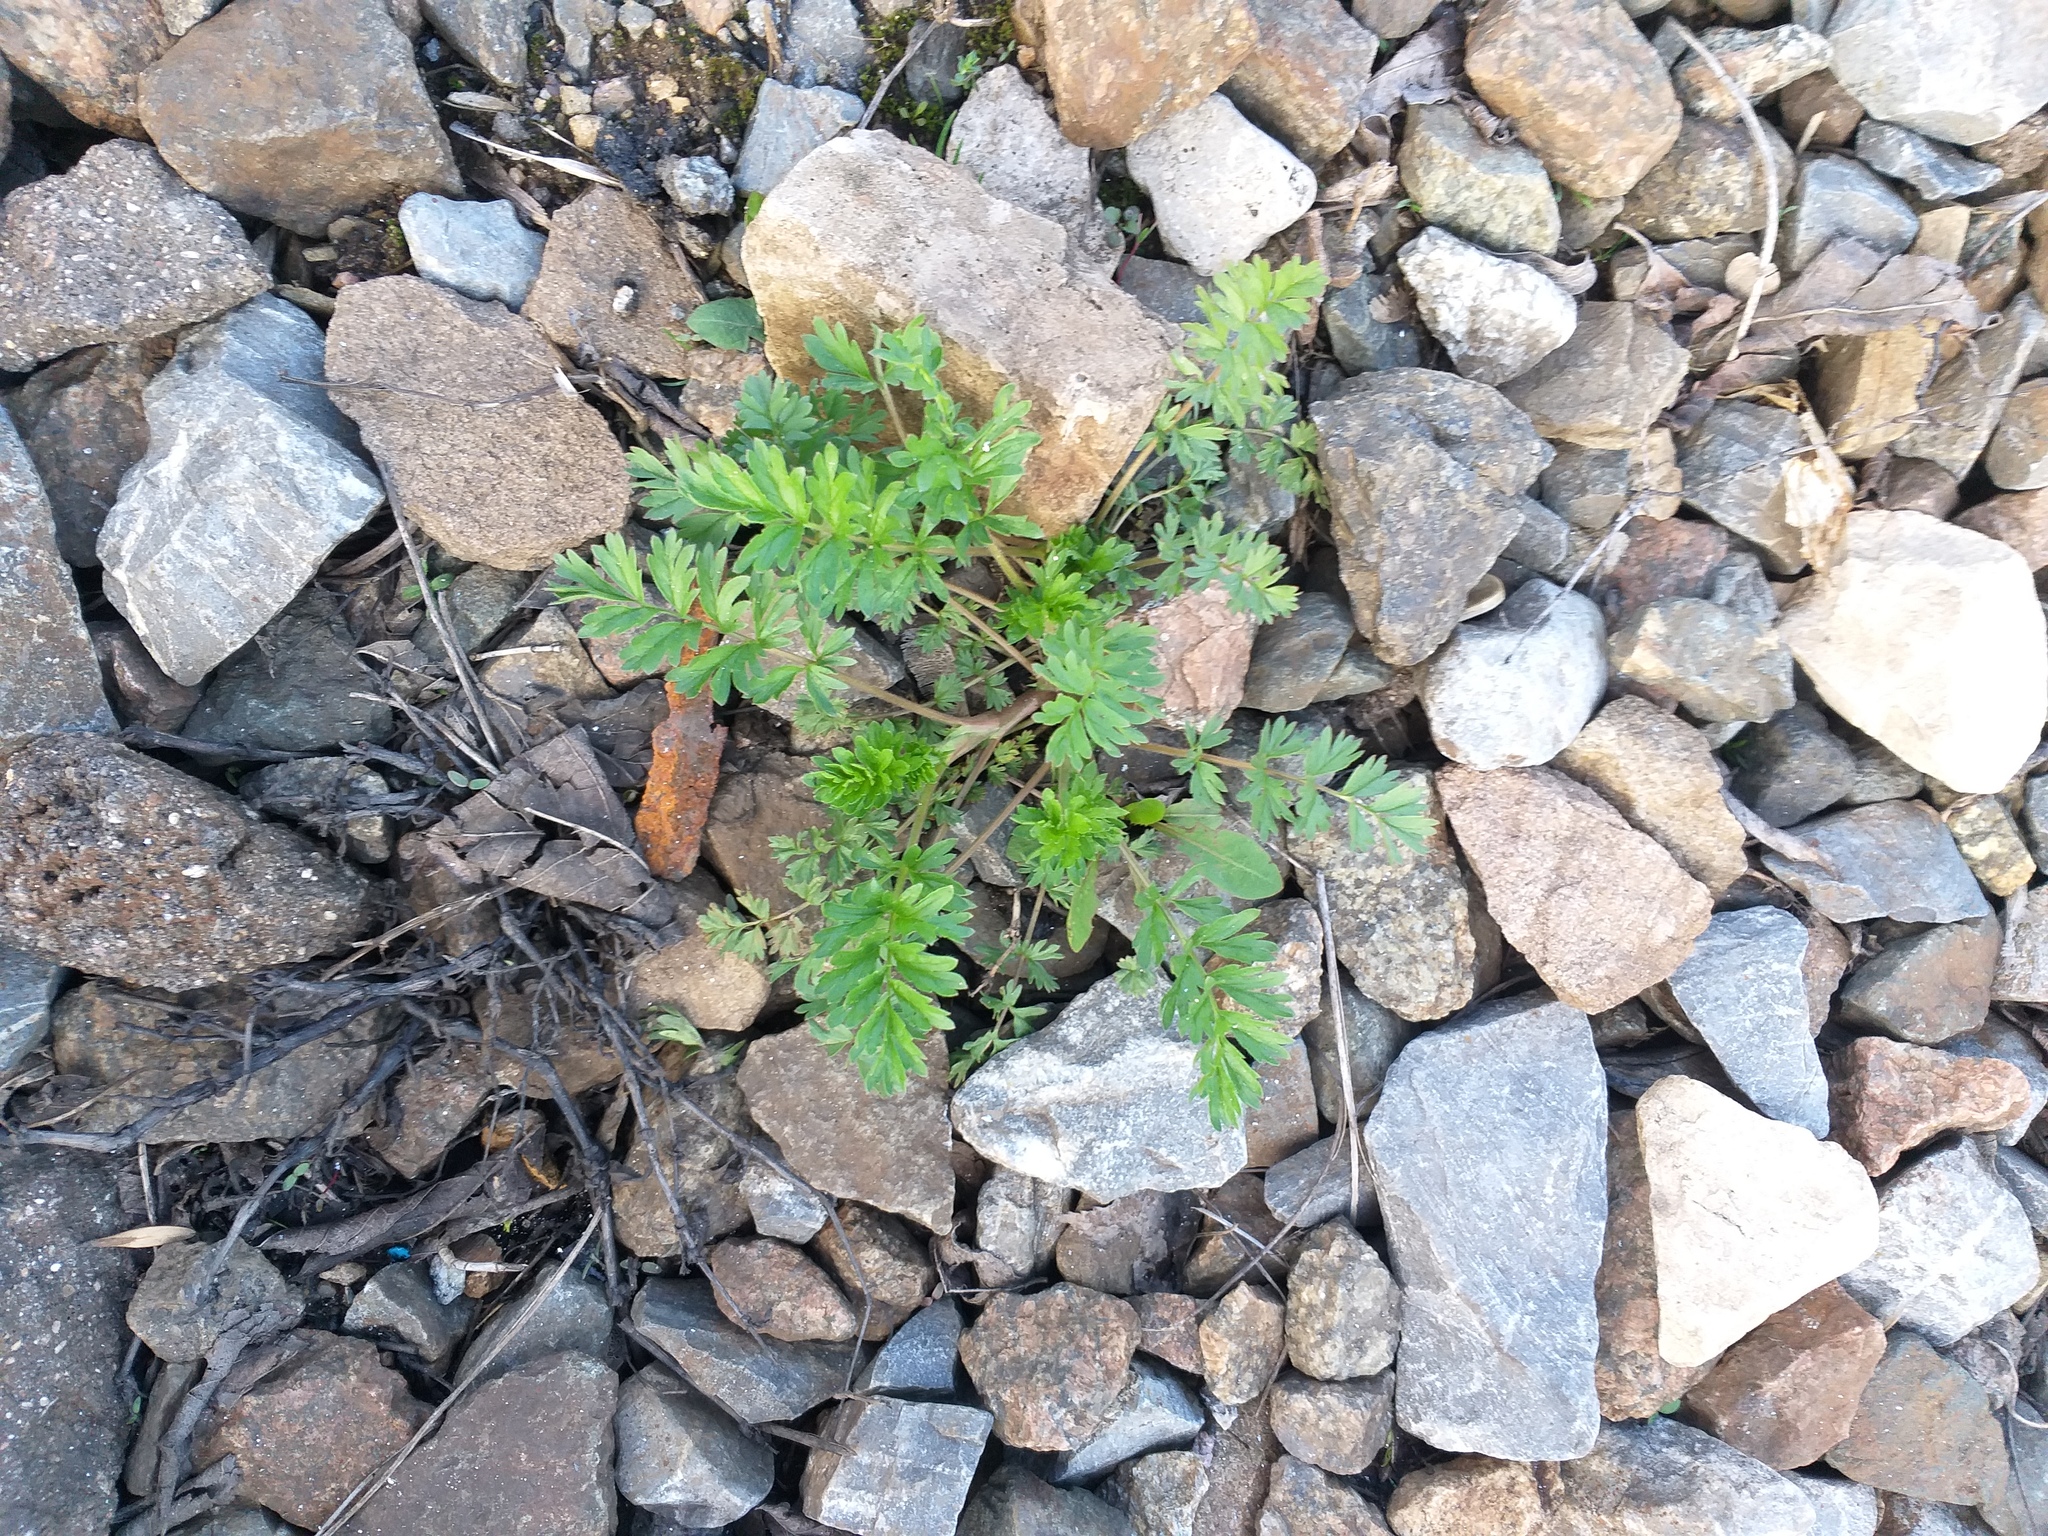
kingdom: Plantae
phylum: Tracheophyta
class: Magnoliopsida
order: Rosales
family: Rosaceae
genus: Potentilla
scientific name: Potentilla supina
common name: Prostrate cinquefoil
